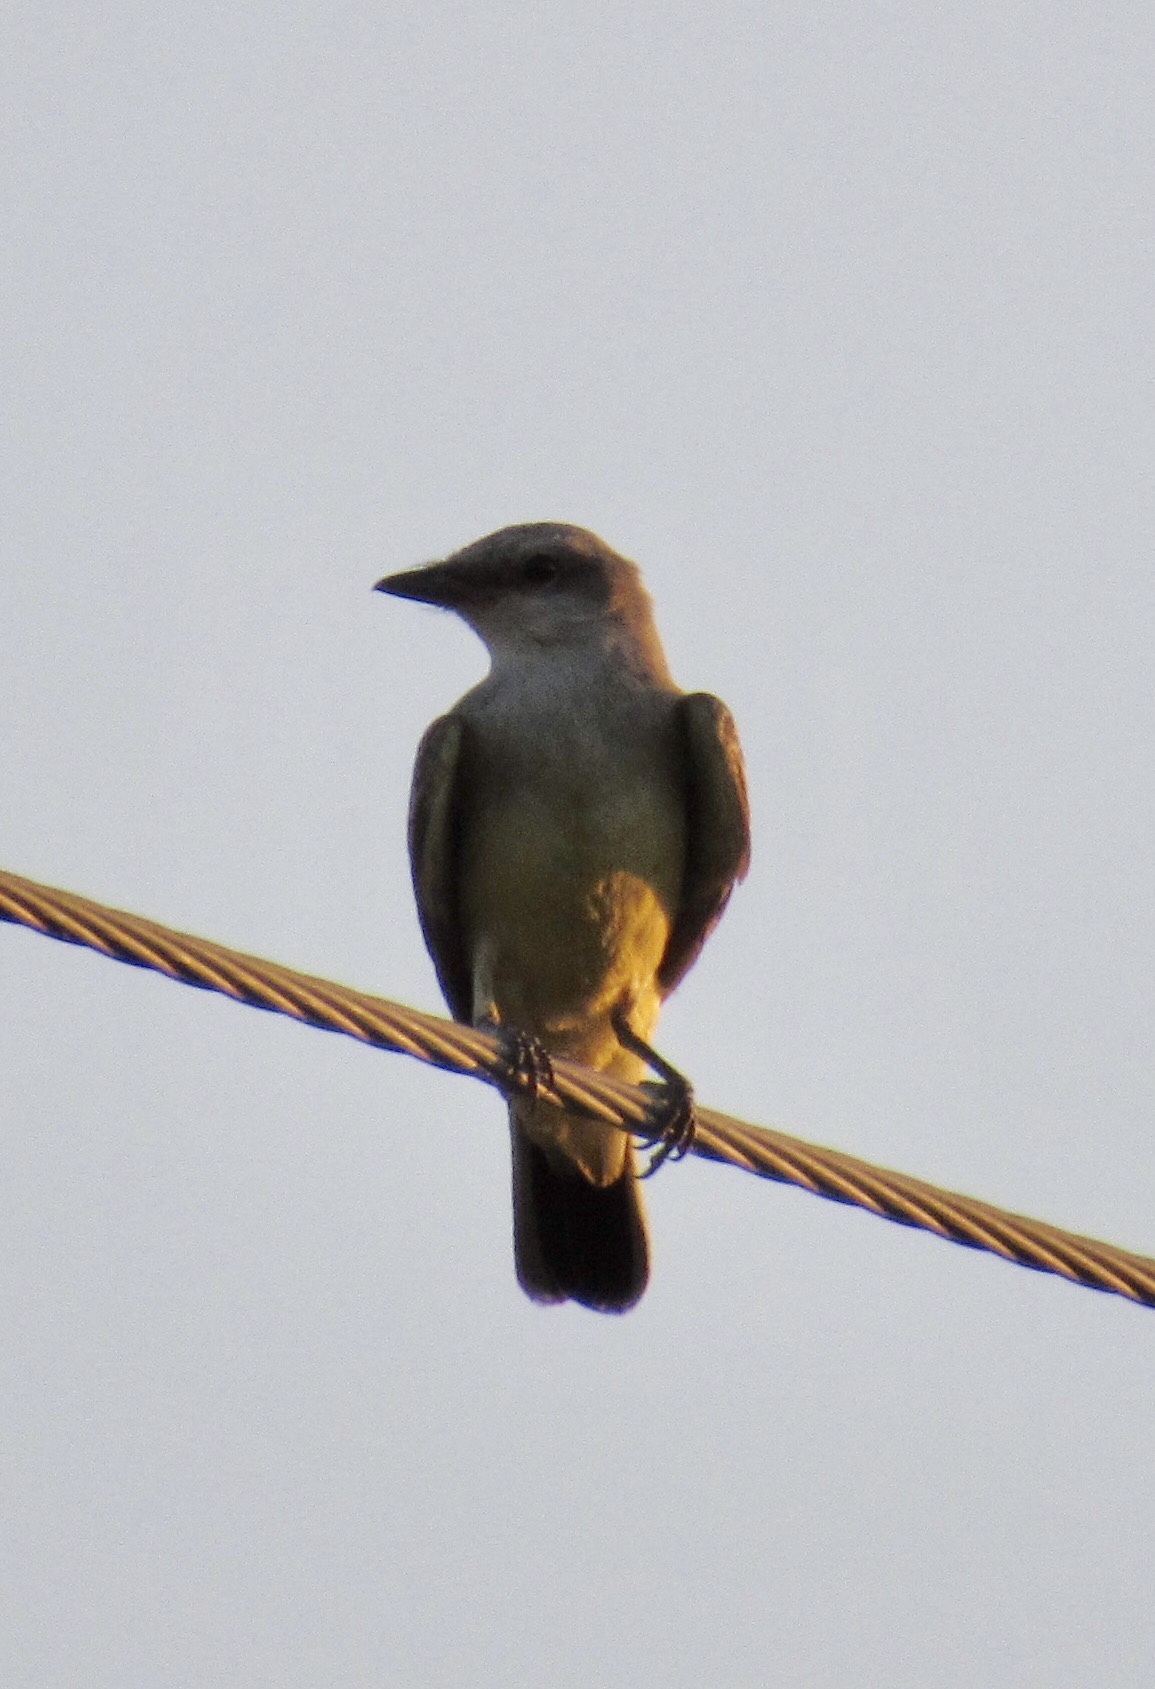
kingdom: Animalia
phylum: Chordata
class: Aves
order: Passeriformes
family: Tyrannidae
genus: Tyrannus
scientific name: Tyrannus verticalis
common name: Western kingbird
